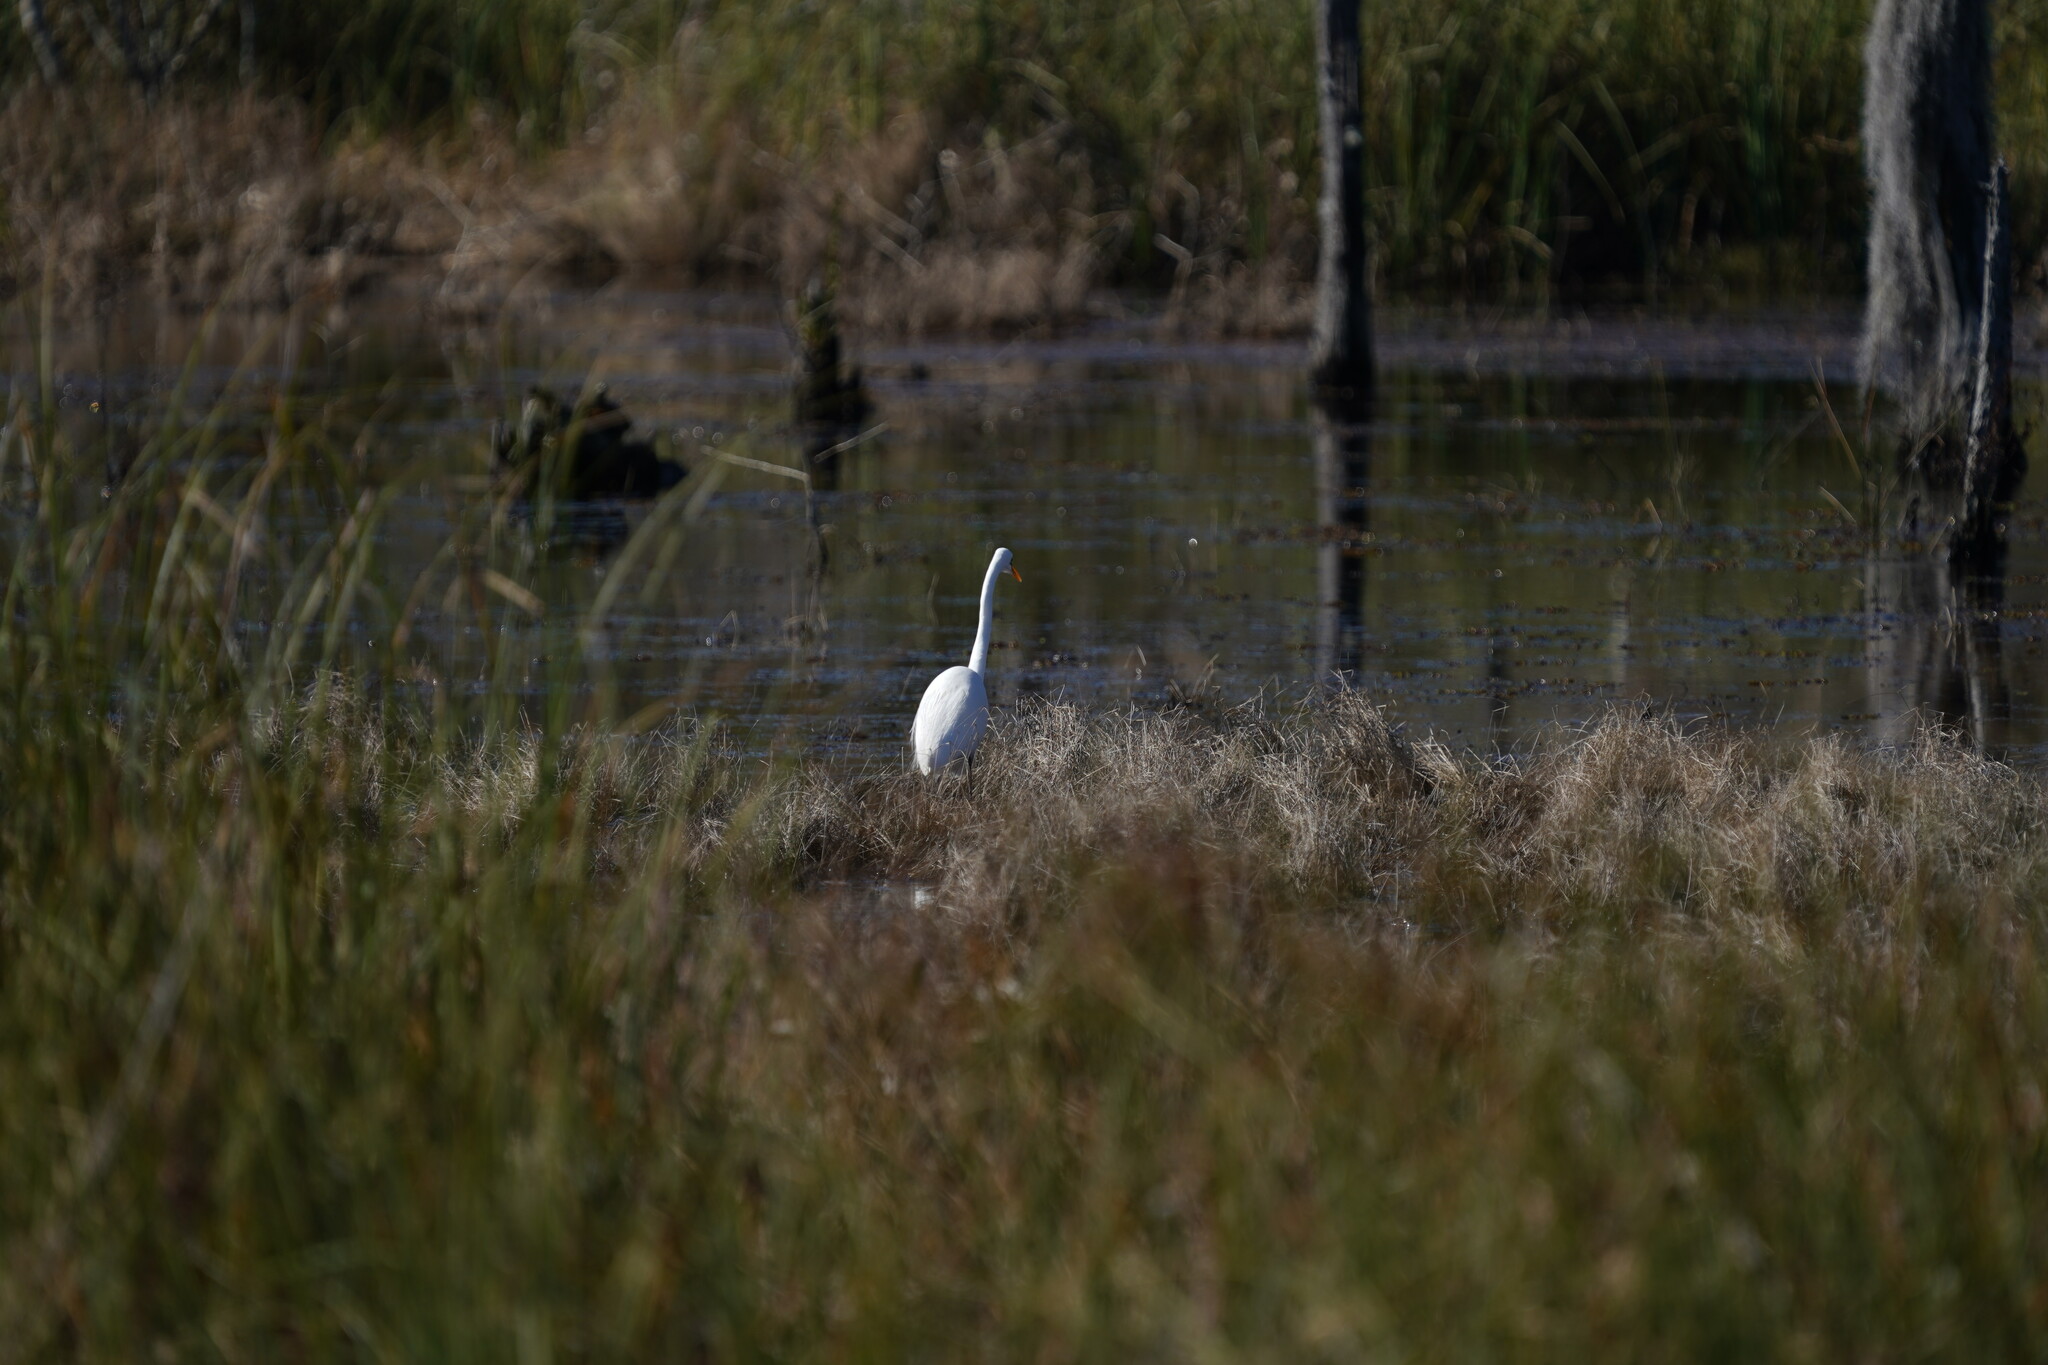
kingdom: Animalia
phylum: Chordata
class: Aves
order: Pelecaniformes
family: Ardeidae
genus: Ardea
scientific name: Ardea alba
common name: Great egret
